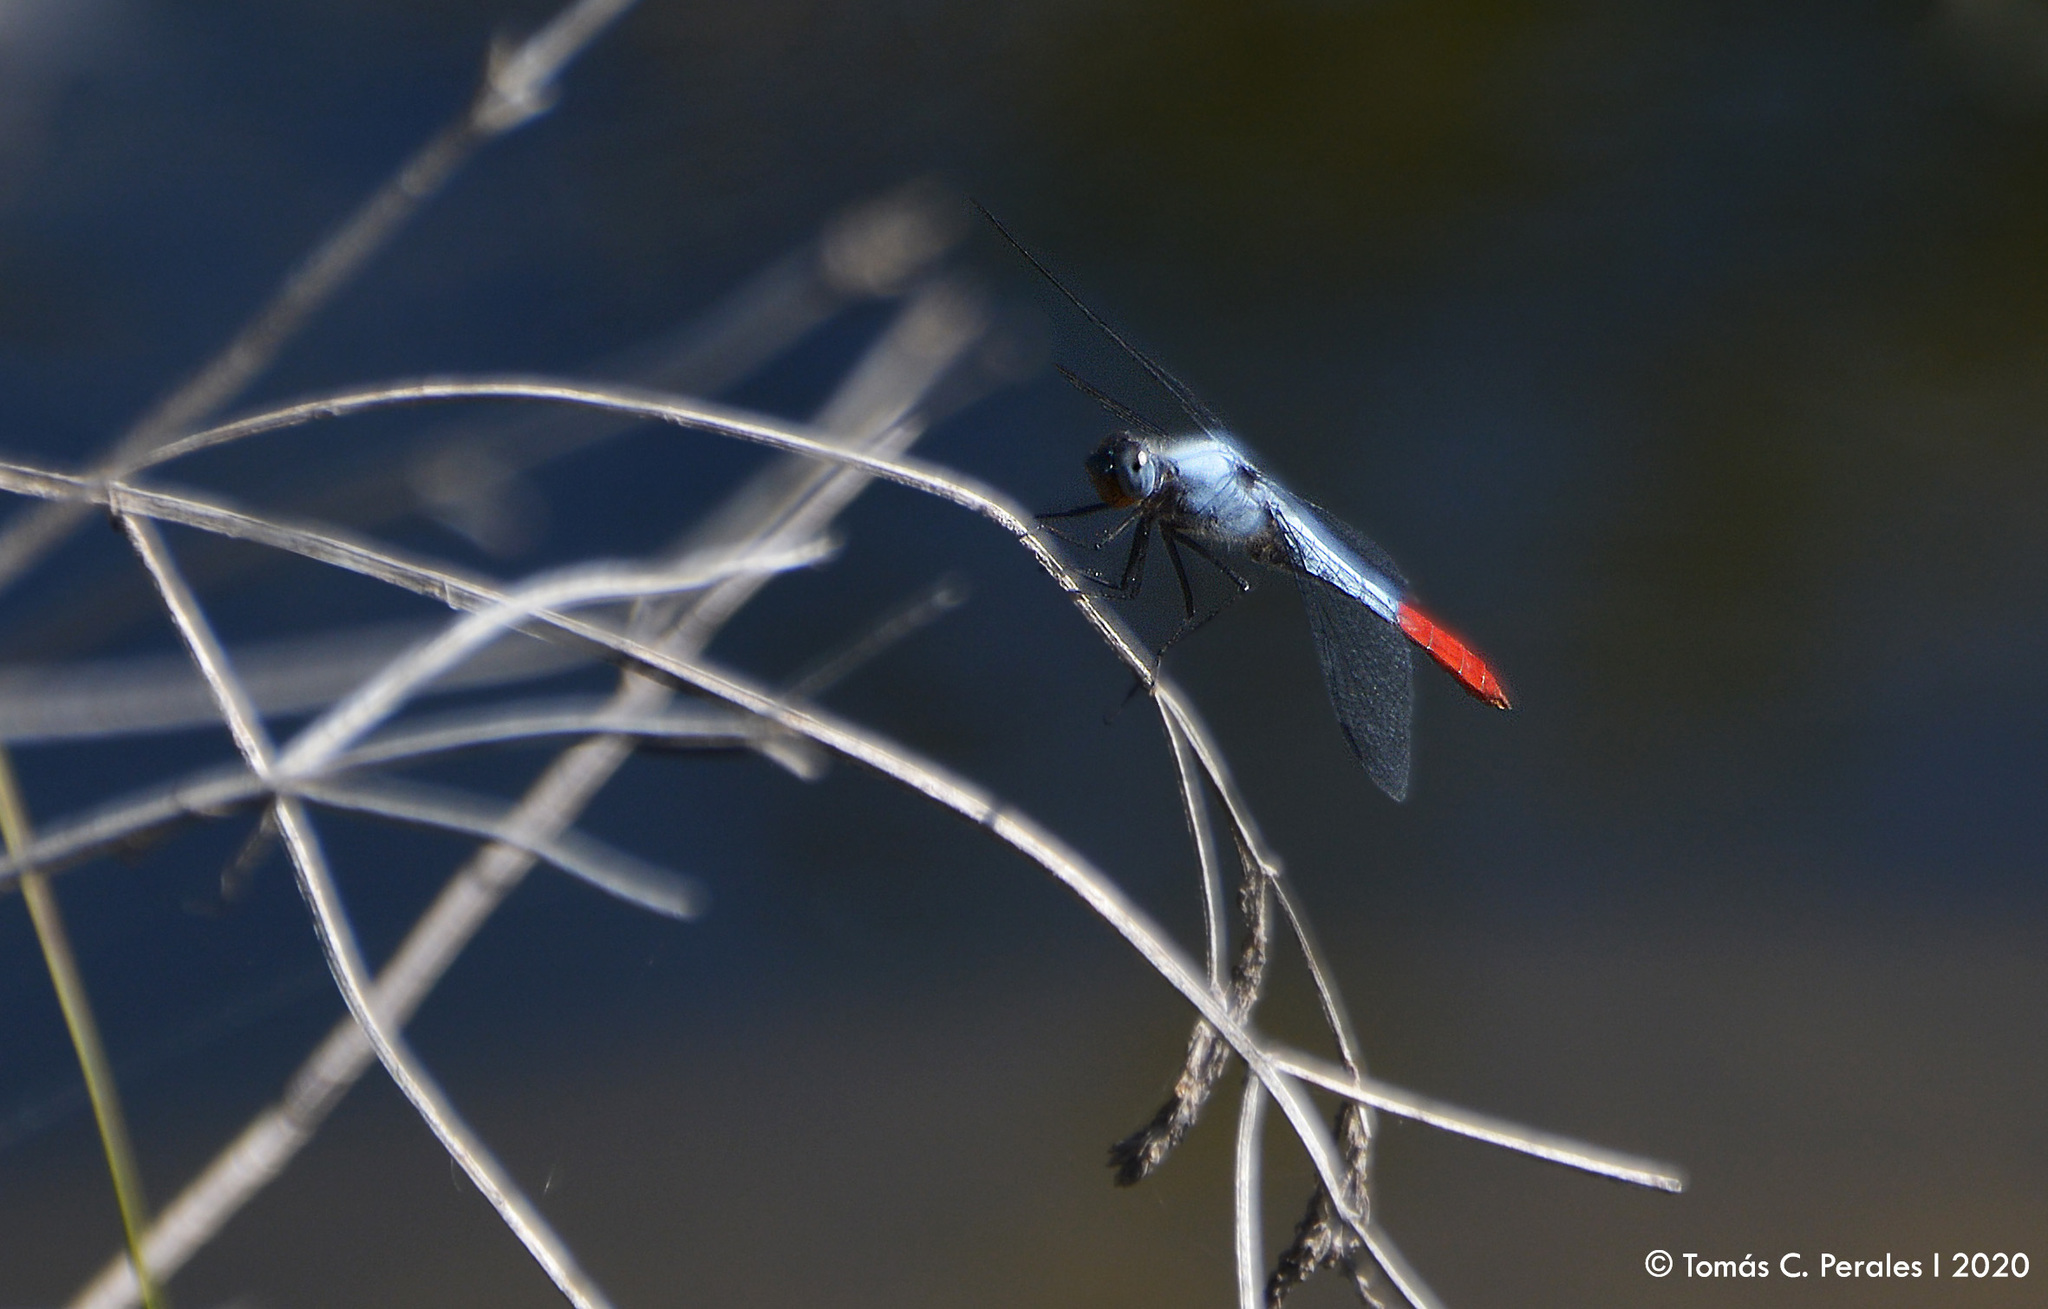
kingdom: Animalia
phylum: Arthropoda
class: Insecta
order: Odonata
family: Libellulidae
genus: Planiplax
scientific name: Planiplax erythropyga
